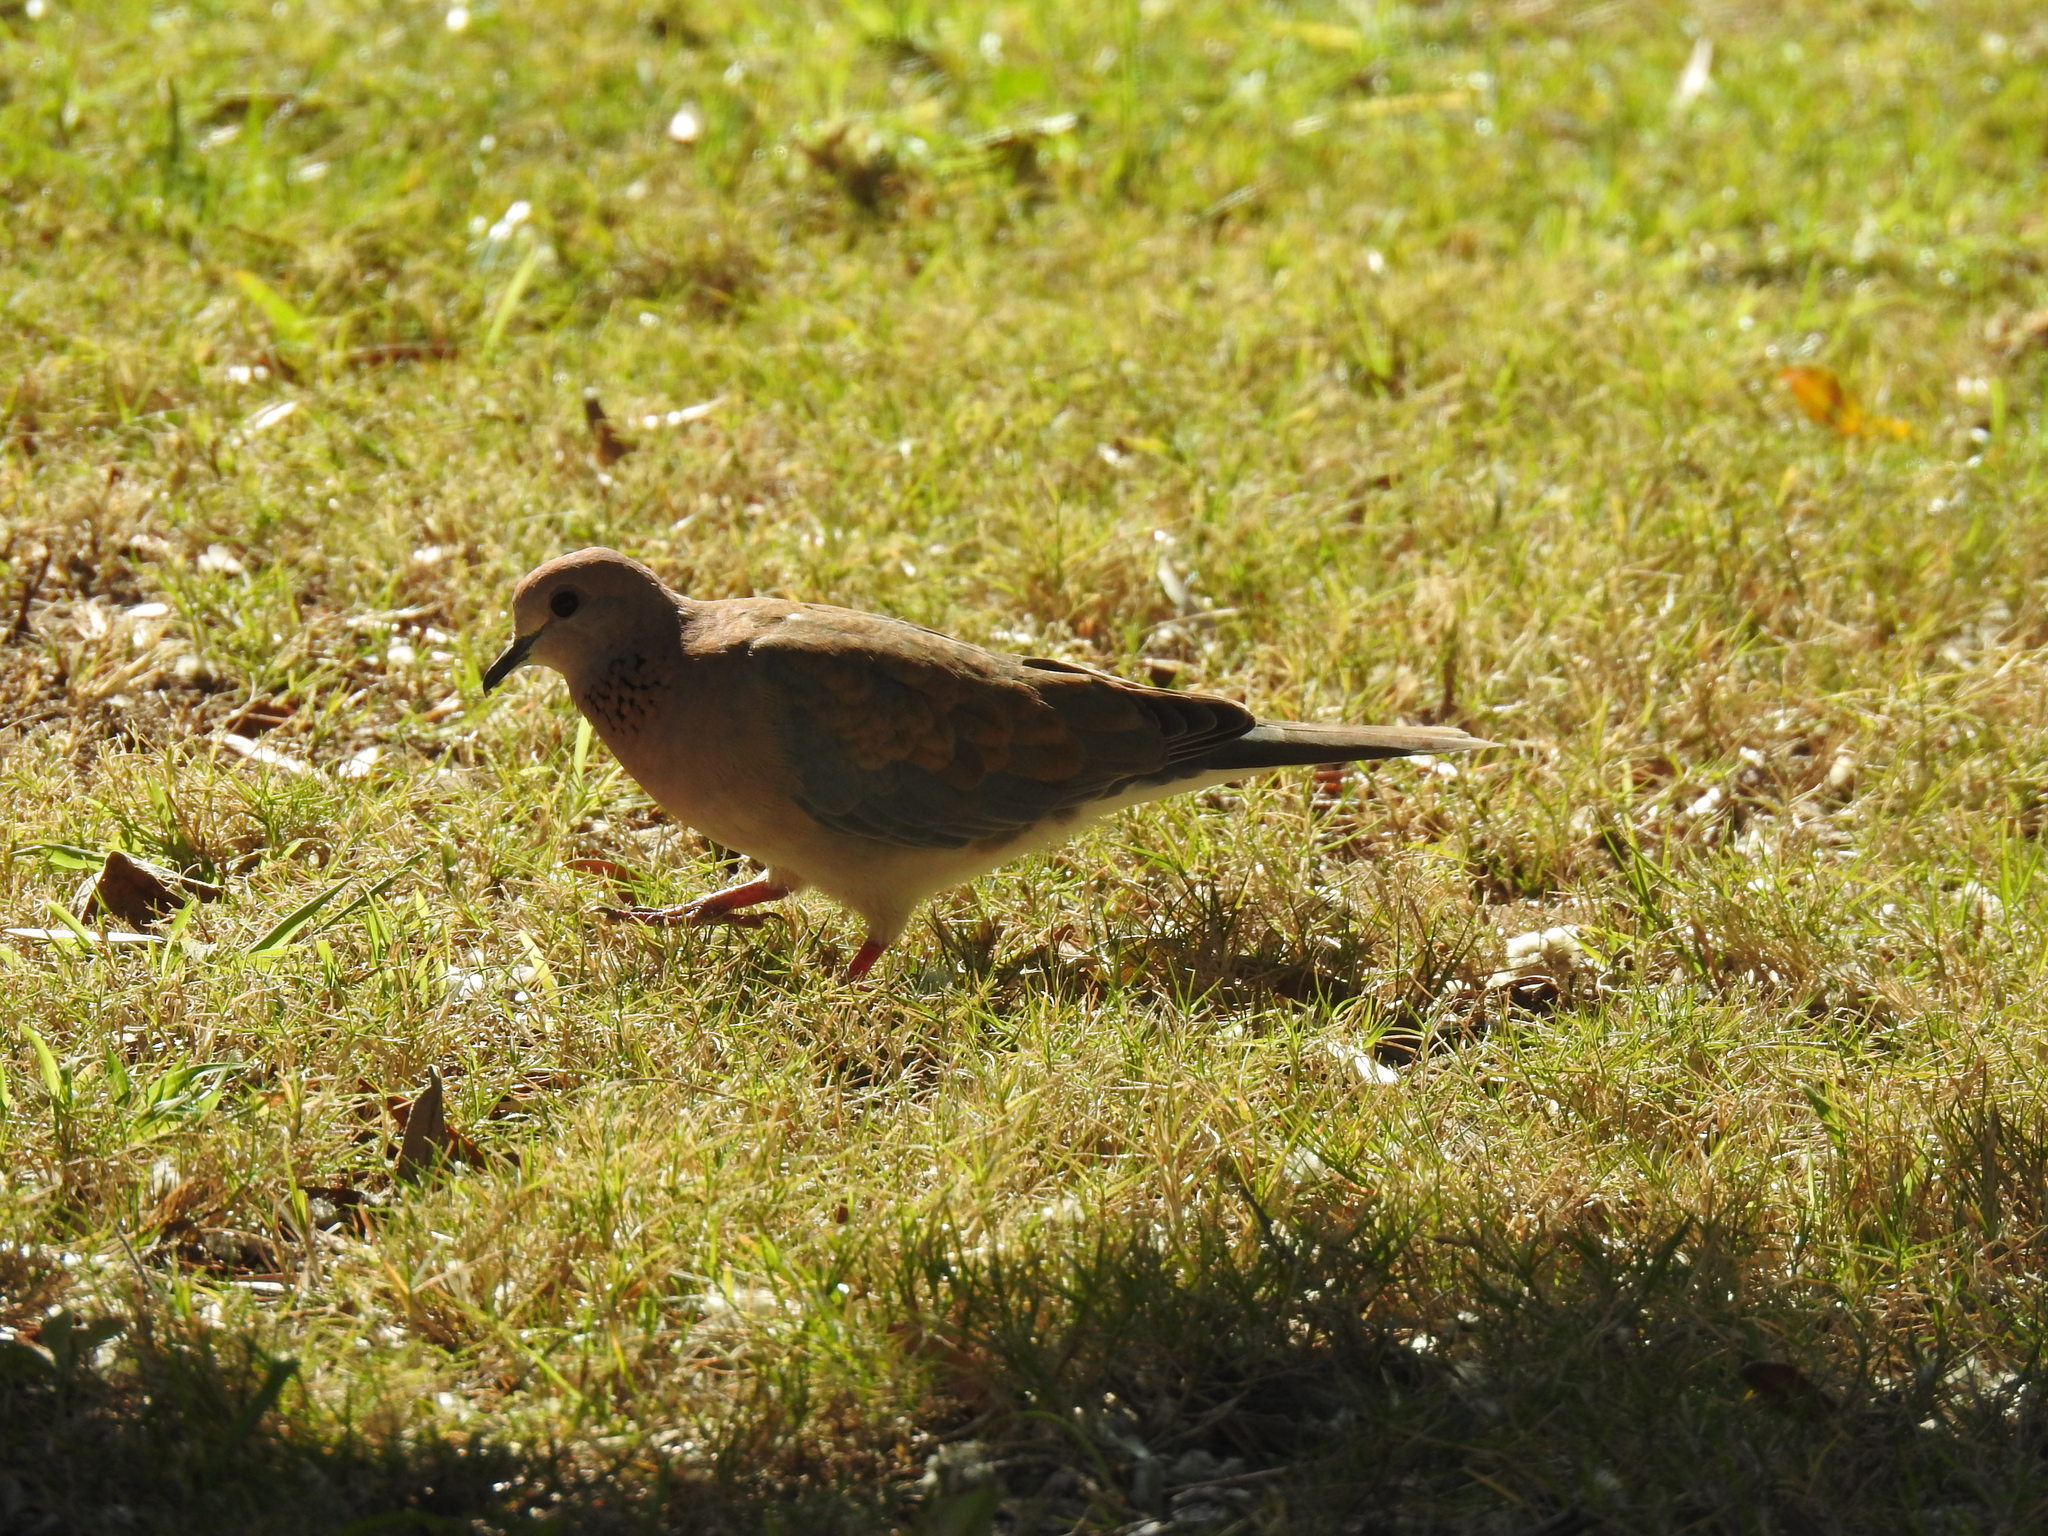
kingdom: Animalia
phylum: Chordata
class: Aves
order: Columbiformes
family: Columbidae
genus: Spilopelia
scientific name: Spilopelia senegalensis
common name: Laughing dove
